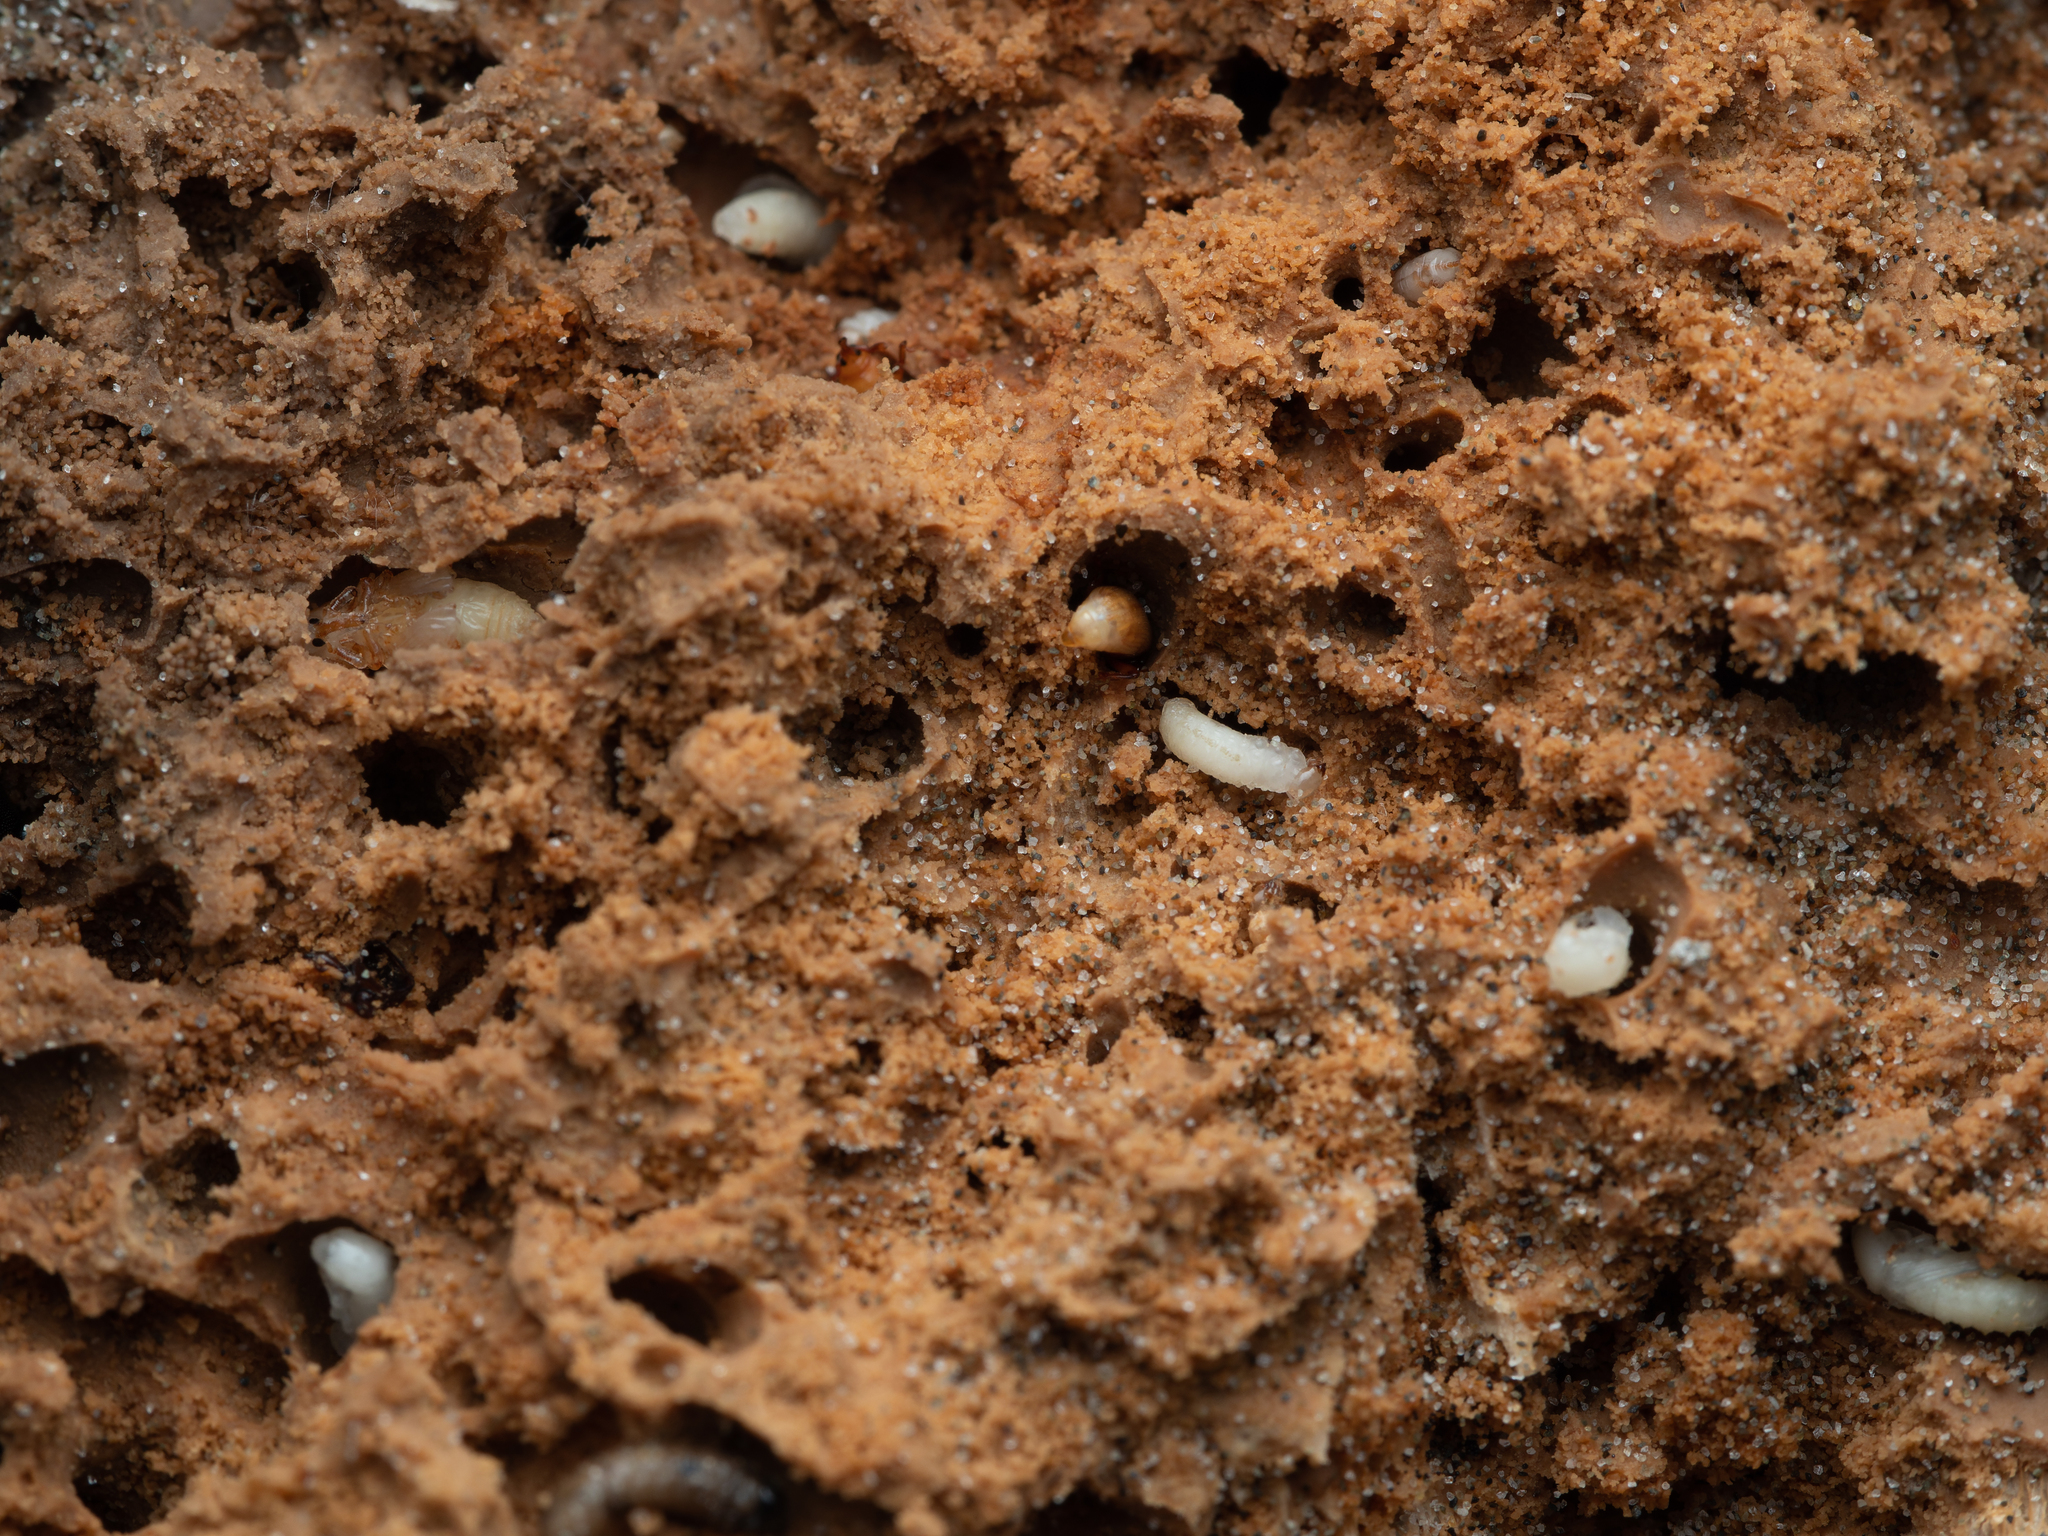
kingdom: Animalia
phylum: Arthropoda
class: Insecta
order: Coleoptera
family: Curculionidae
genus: Mesites
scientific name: Mesites pallidipennis
